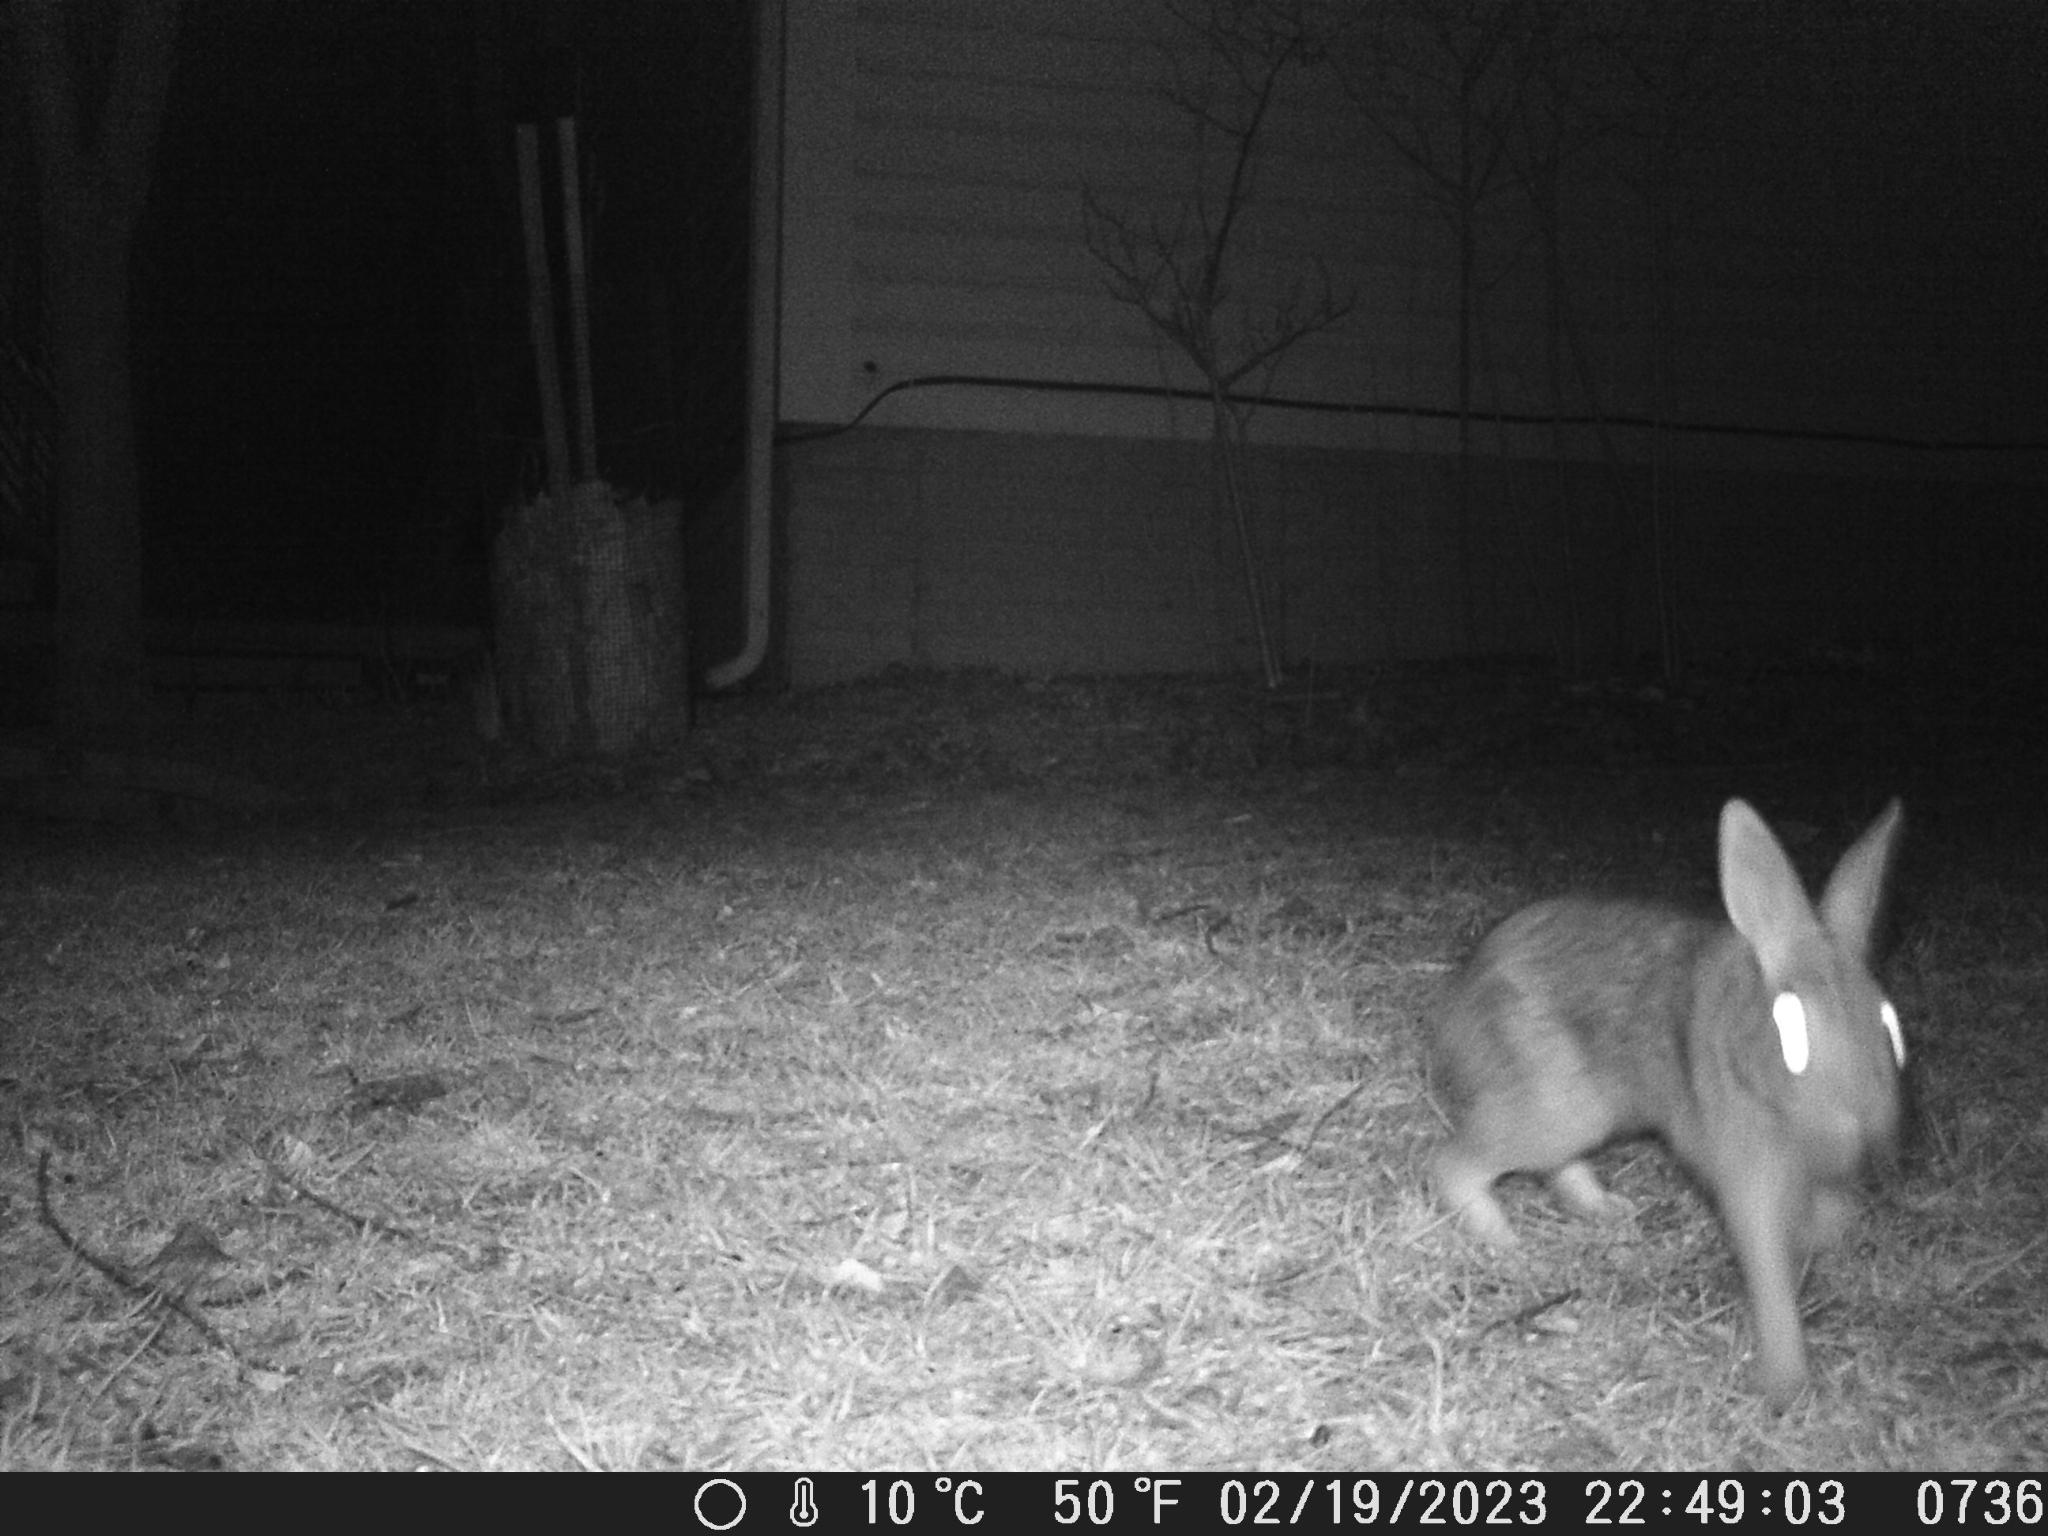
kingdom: Animalia
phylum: Chordata
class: Mammalia
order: Lagomorpha
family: Leporidae
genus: Sylvilagus
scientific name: Sylvilagus floridanus
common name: Eastern cottontail
